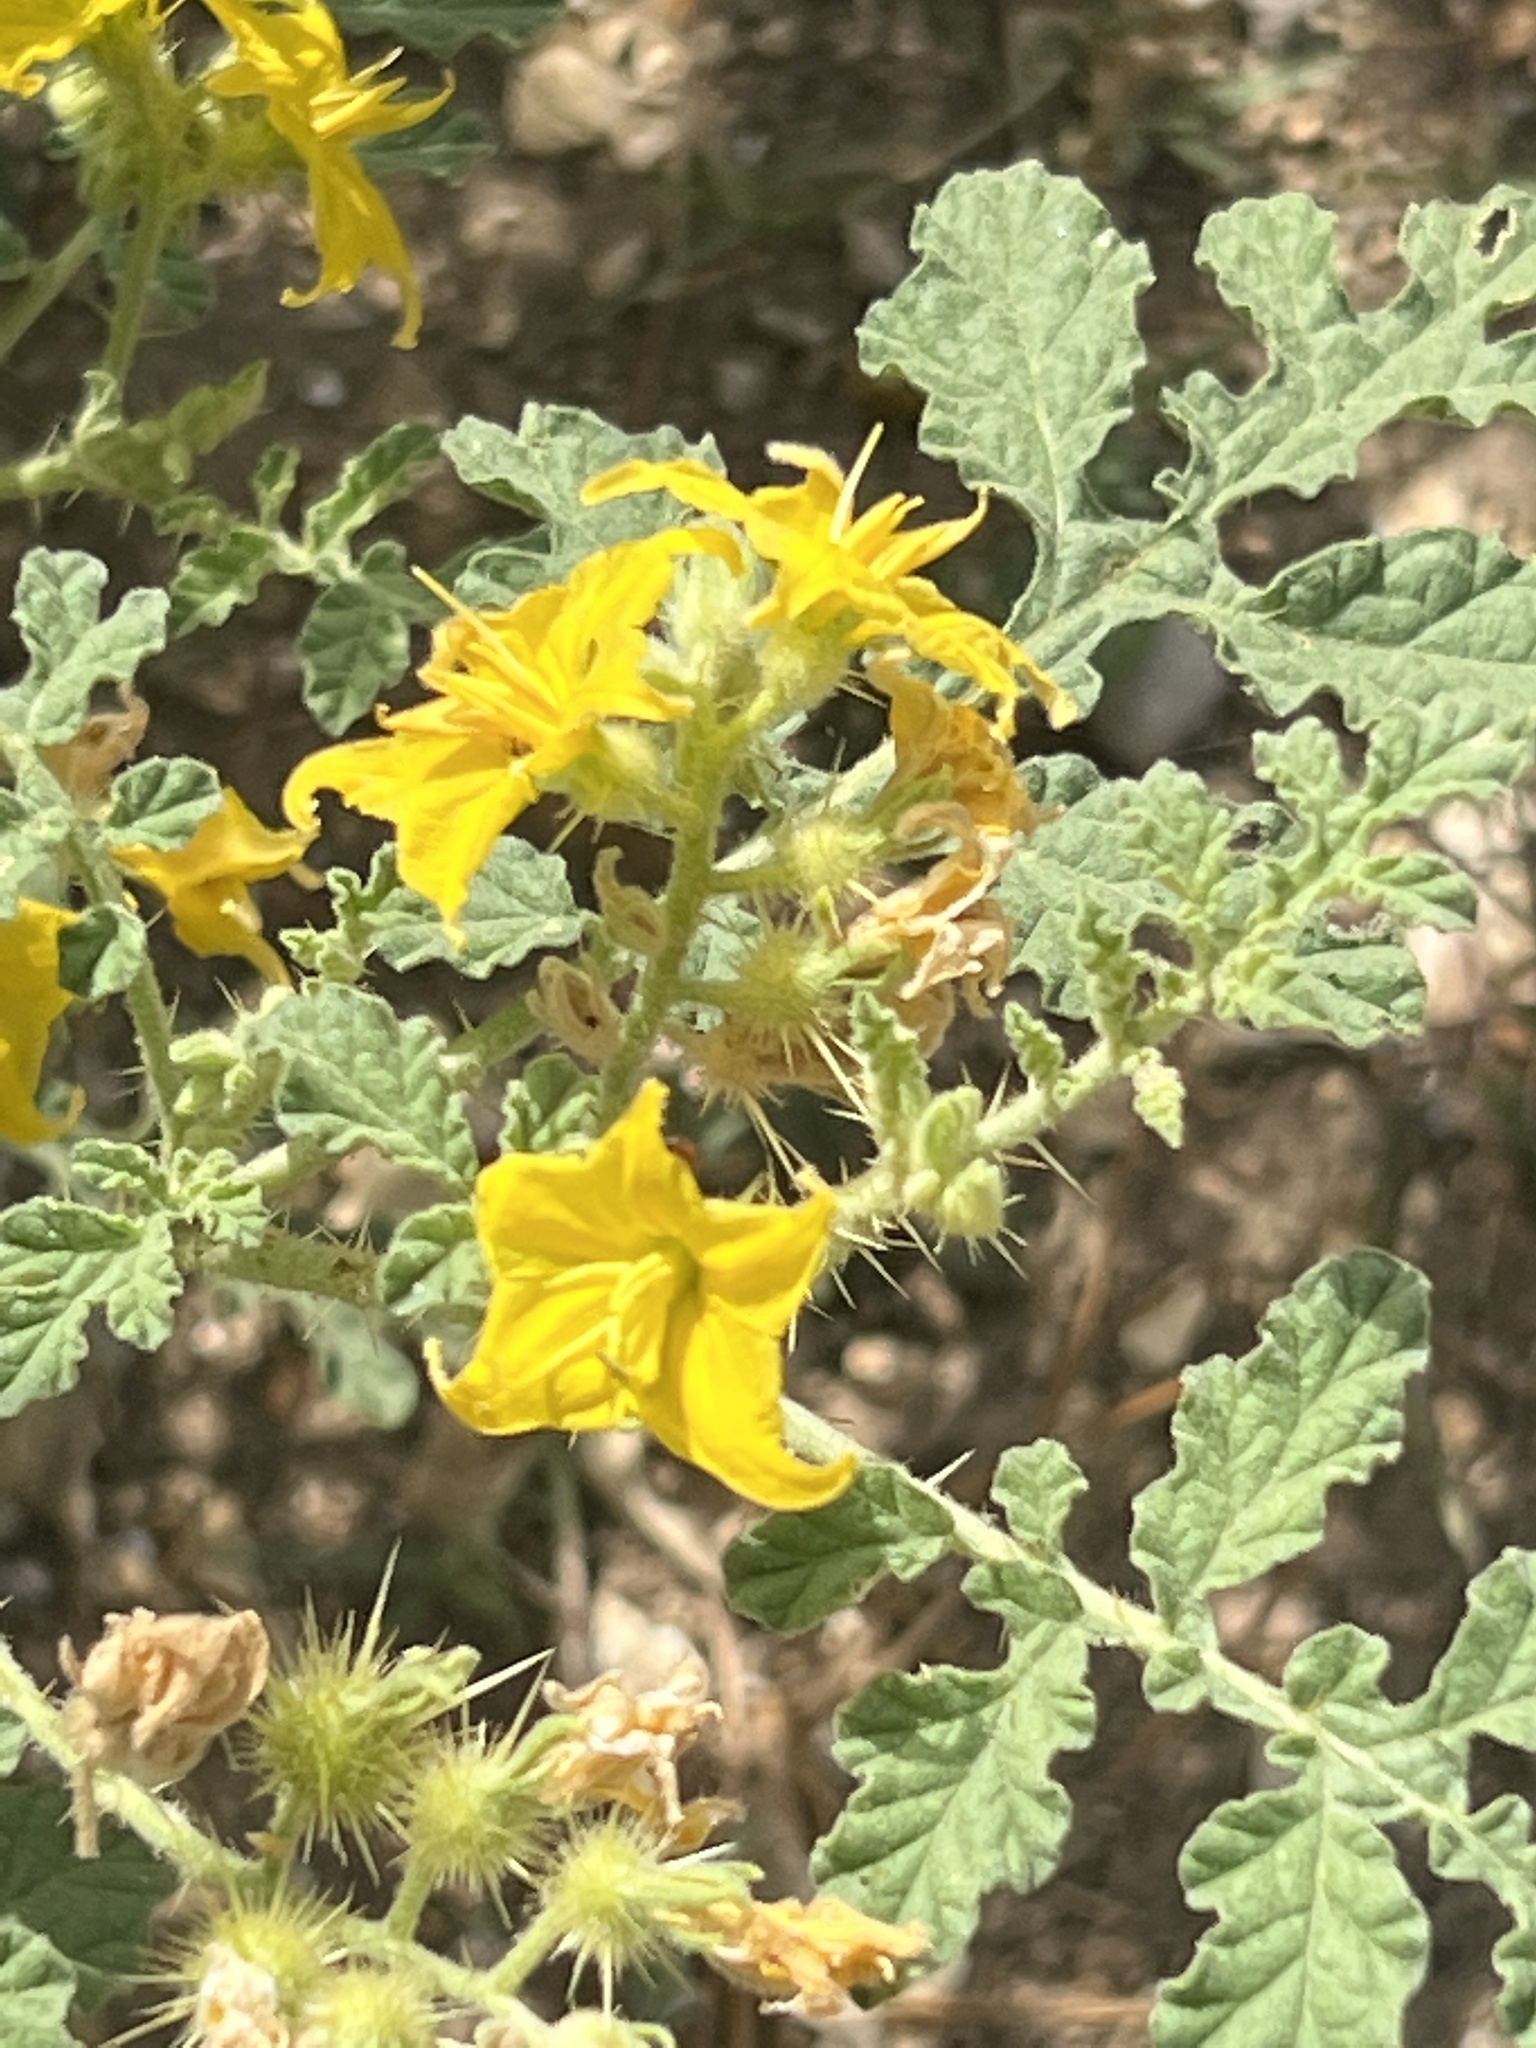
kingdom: Plantae
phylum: Tracheophyta
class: Magnoliopsida
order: Solanales
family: Solanaceae
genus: Solanum
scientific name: Solanum angustifolium
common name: Buffalobur nightshade
